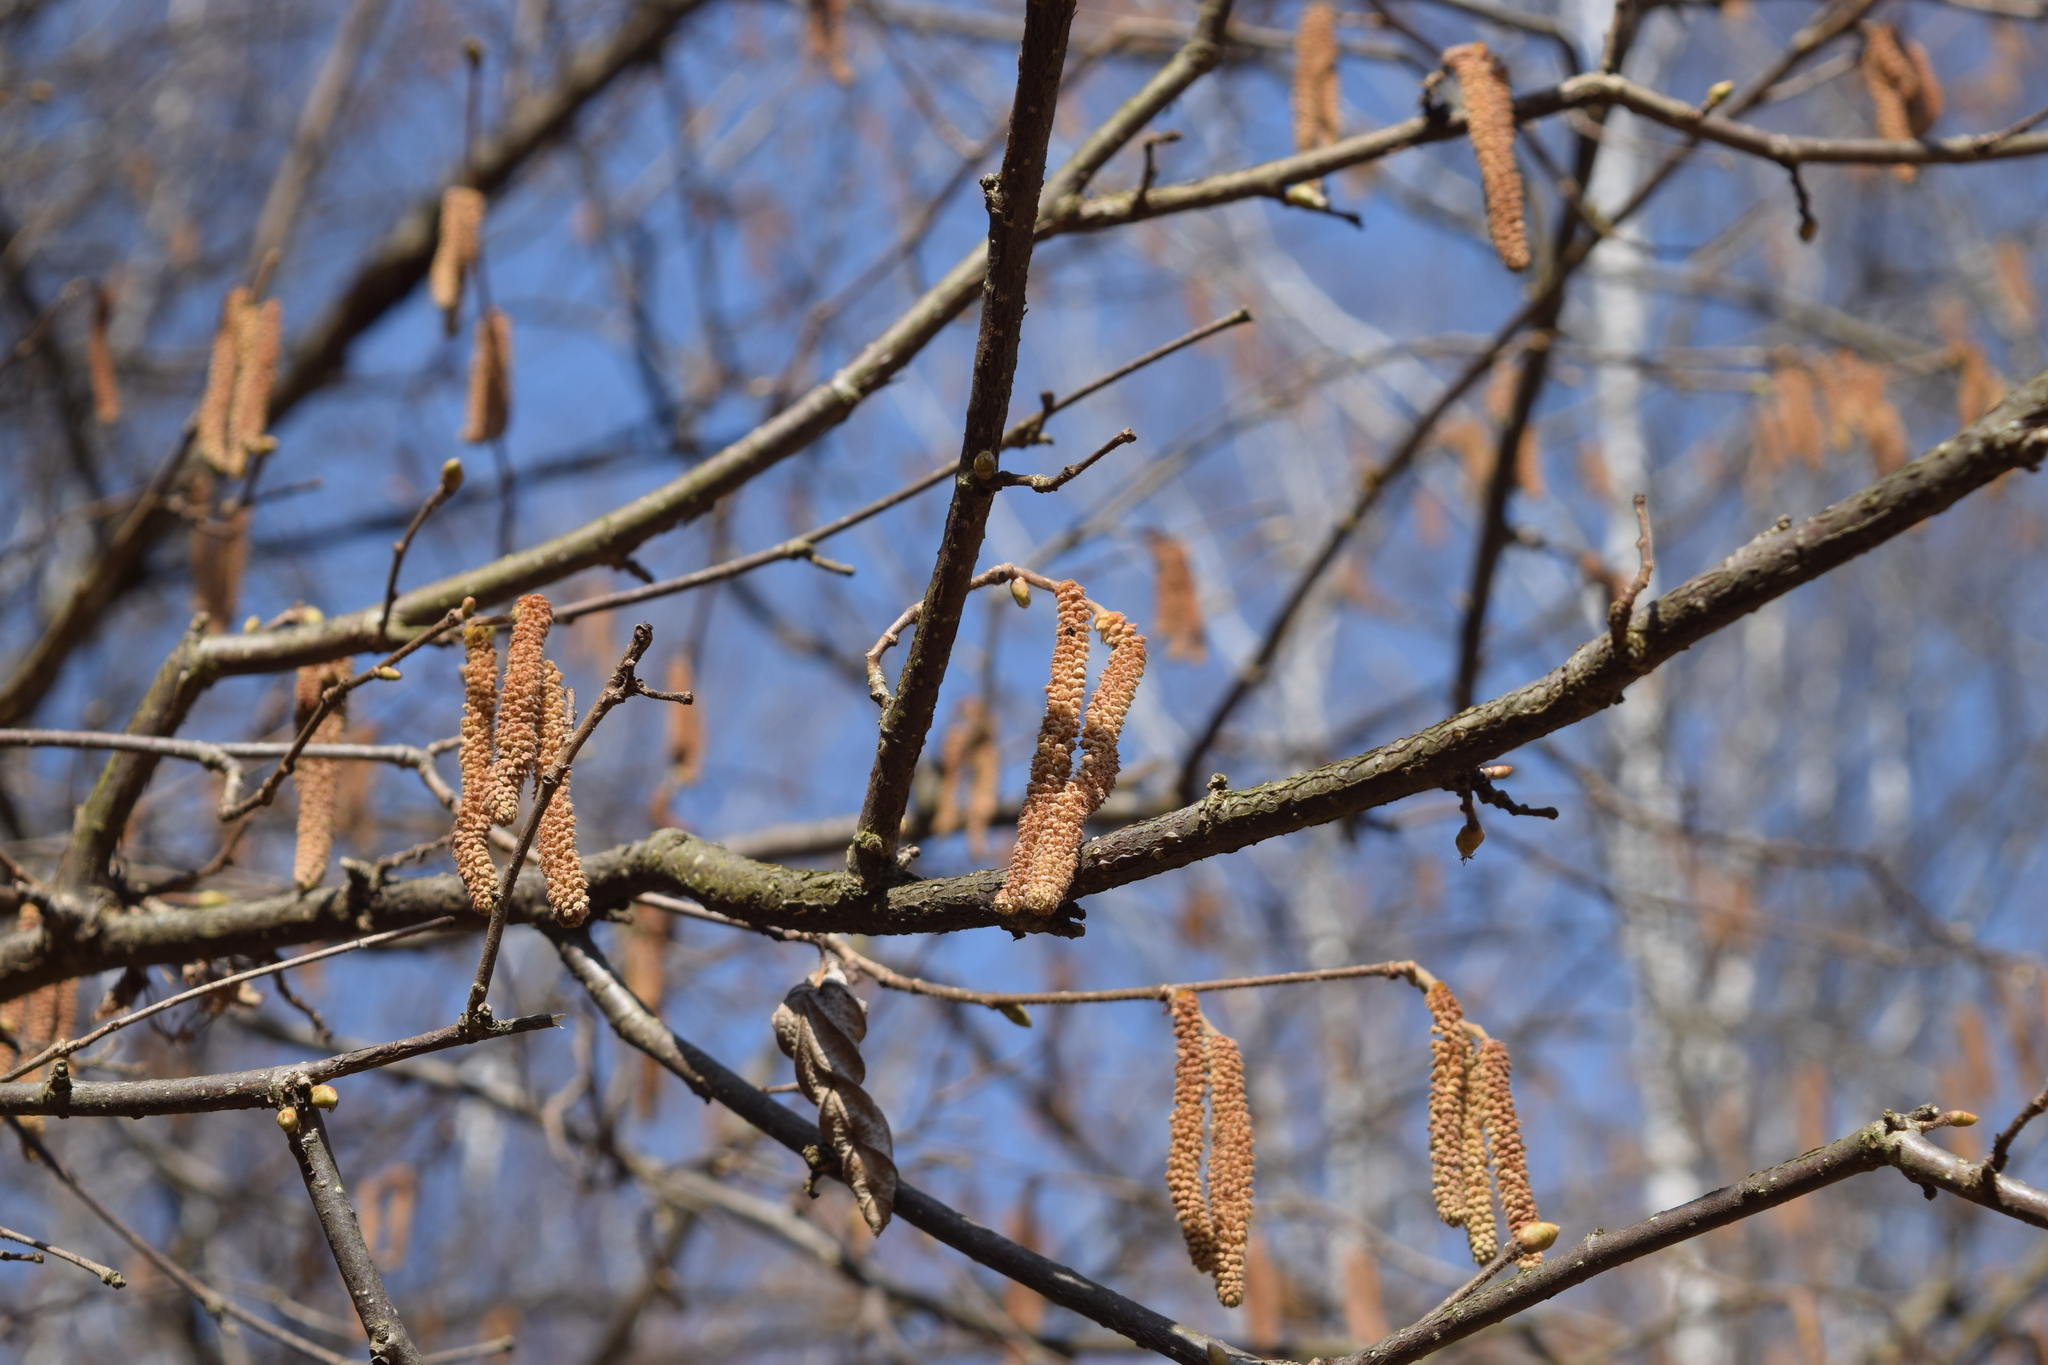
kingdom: Plantae
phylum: Tracheophyta
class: Magnoliopsida
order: Fagales
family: Betulaceae
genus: Corylus
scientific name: Corylus avellana
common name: European hazel
